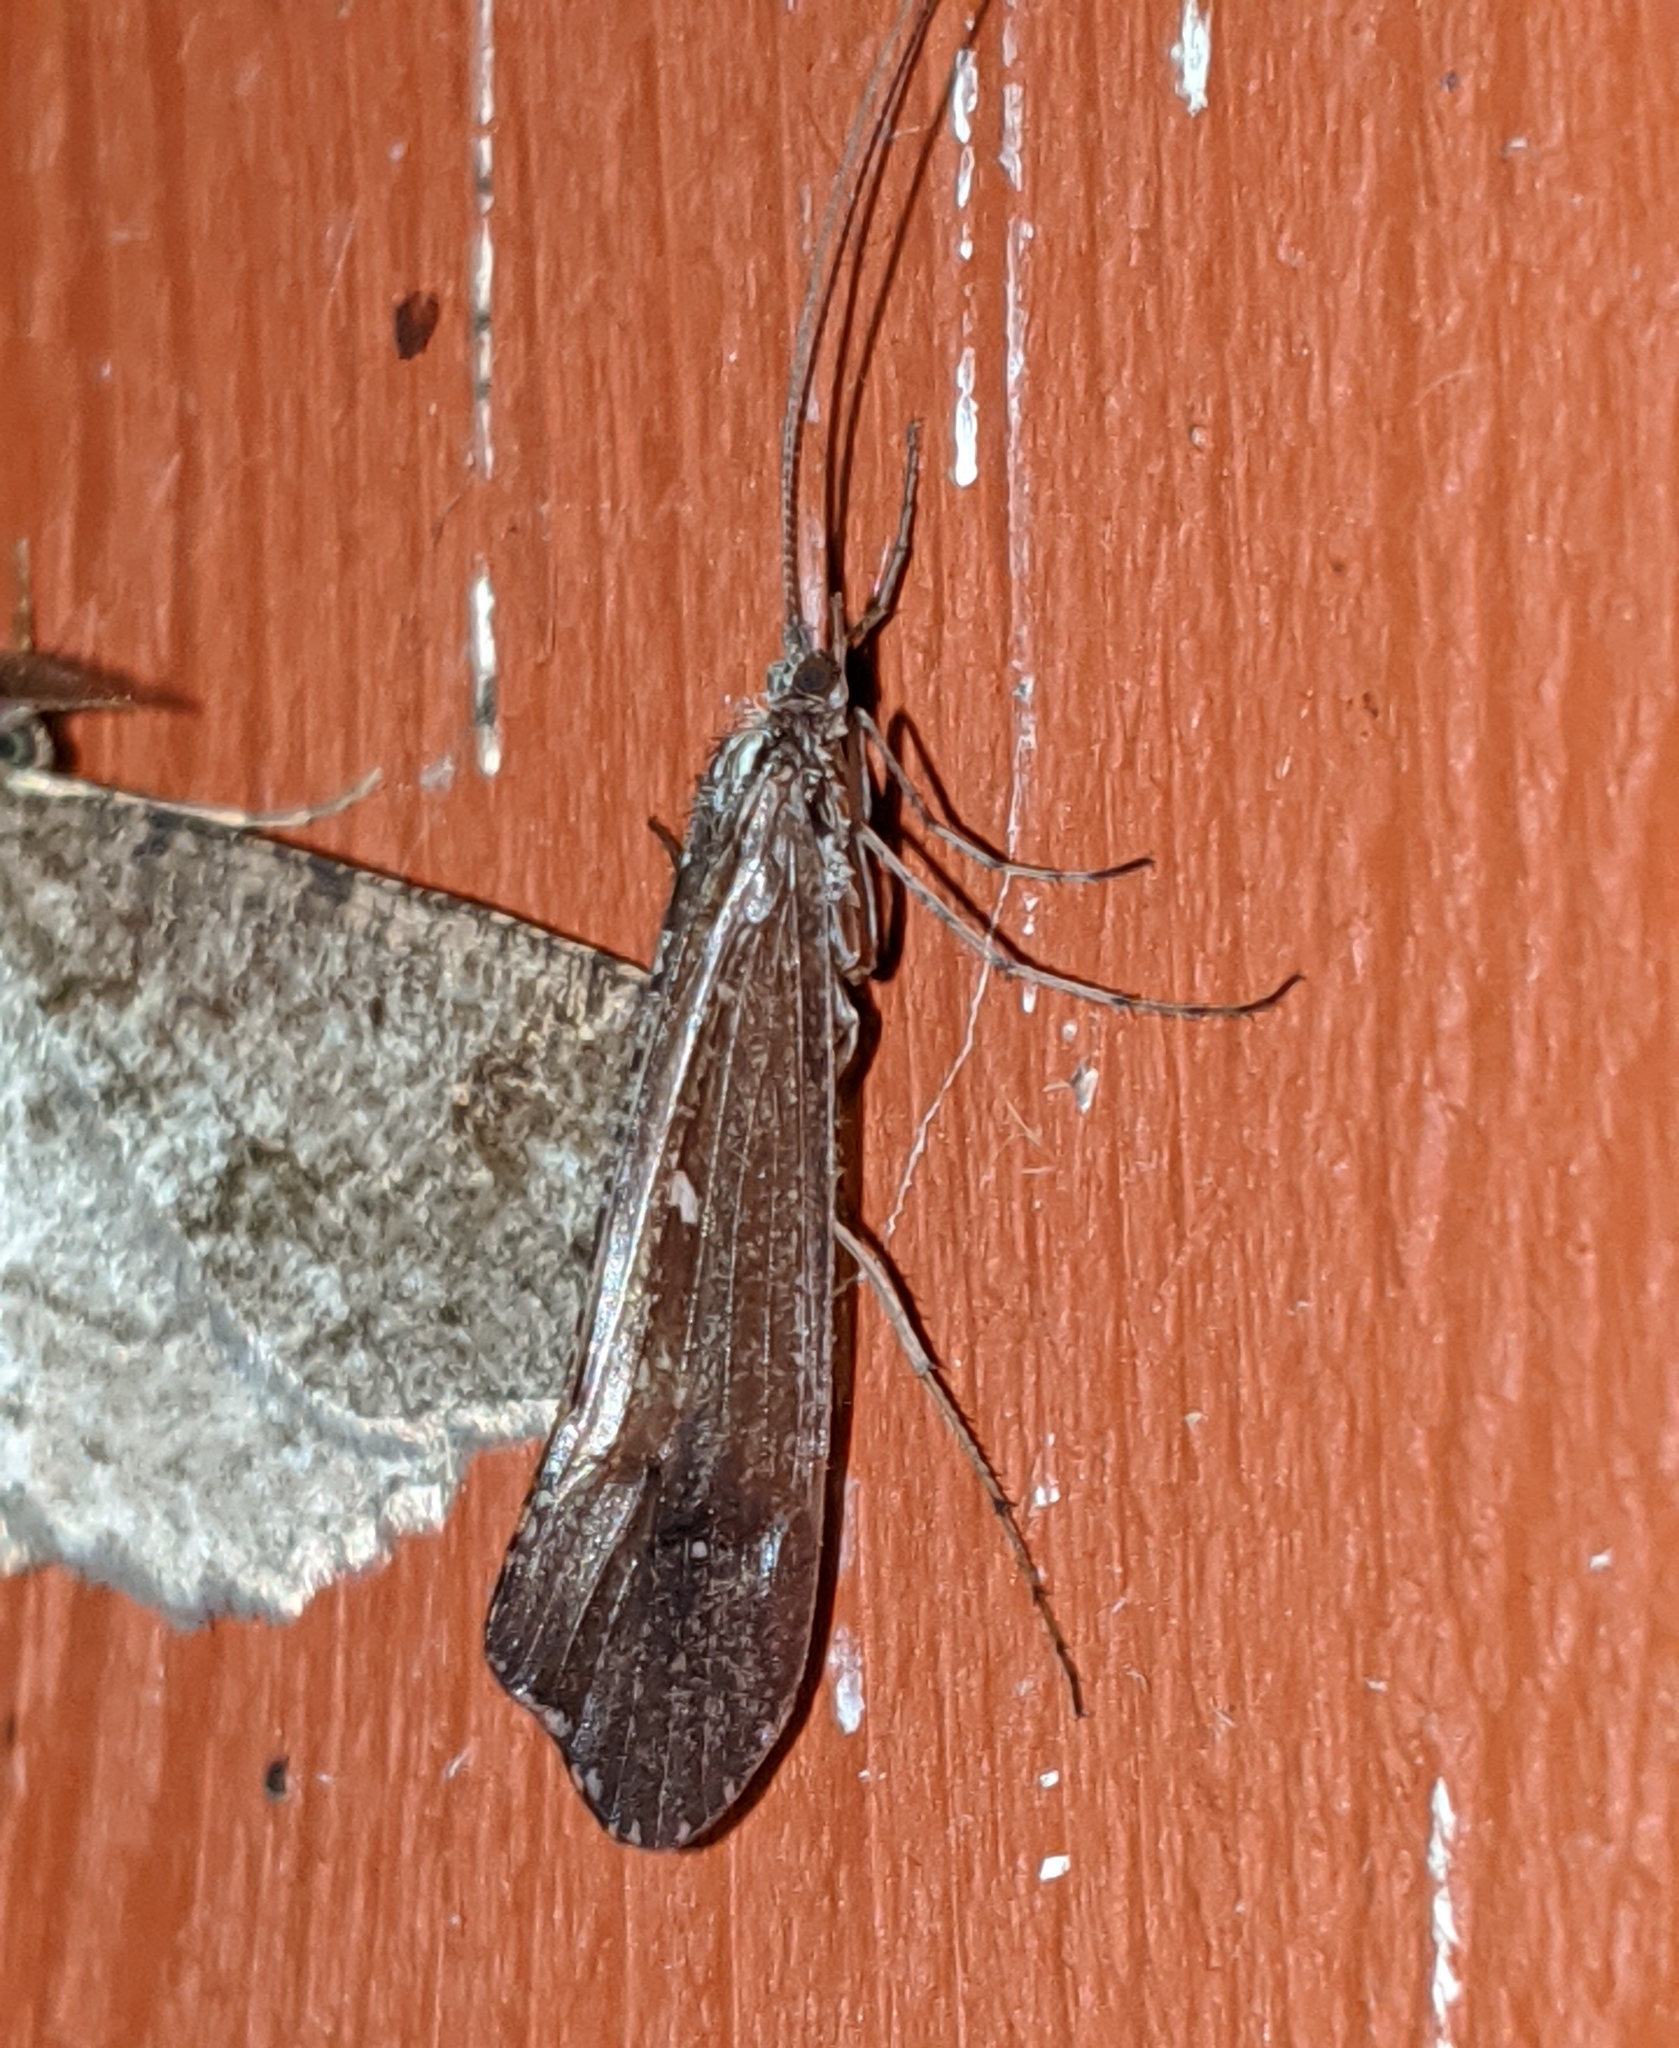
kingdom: Animalia
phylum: Arthropoda
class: Insecta
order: Trichoptera
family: Limnephilidae
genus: Glyphopsyche
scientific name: Glyphopsyche irrorata
